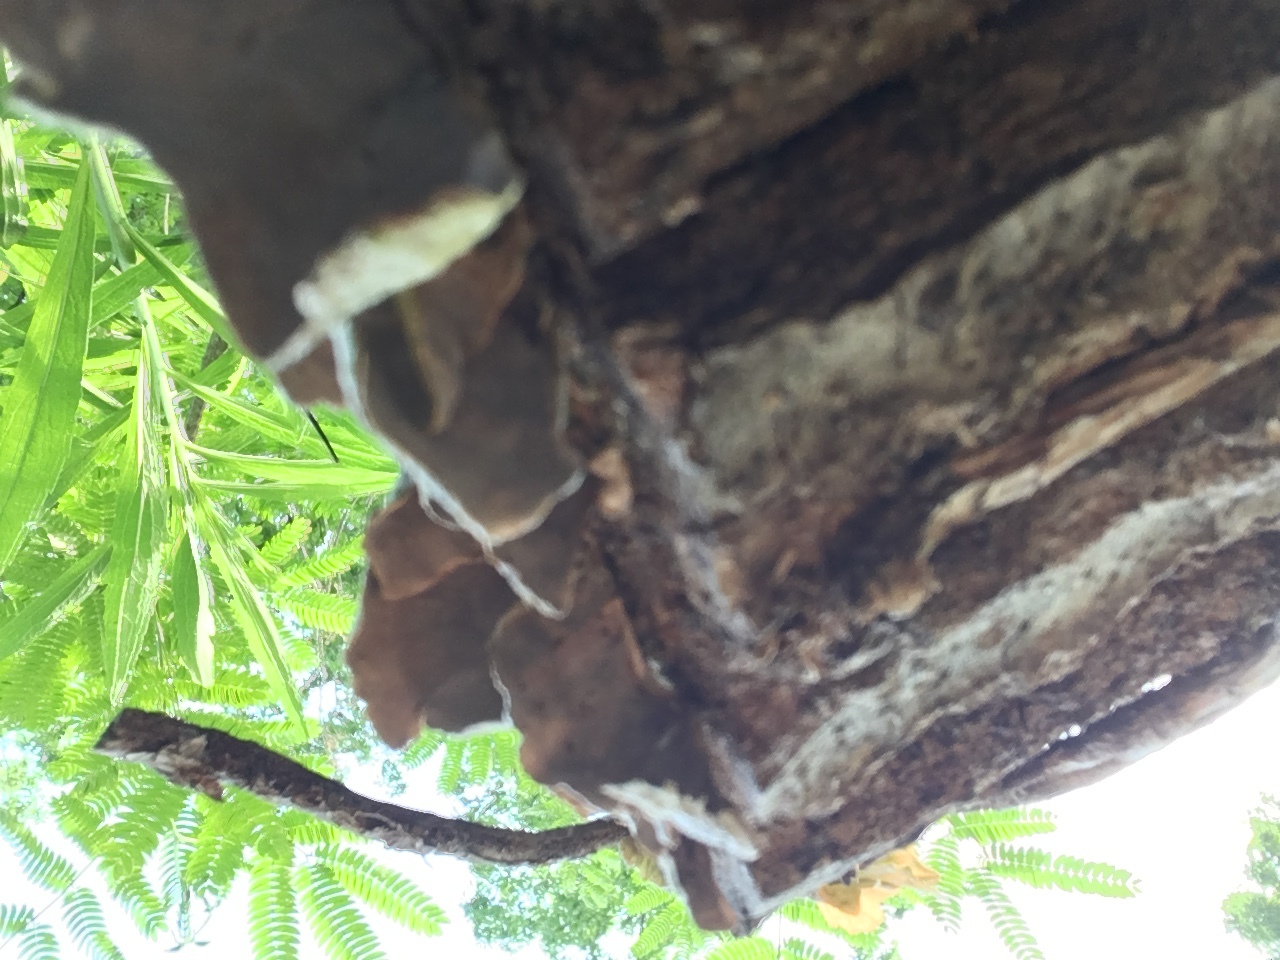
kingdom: Fungi
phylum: Basidiomycota
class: Agaricomycetes
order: Polyporales
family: Polyporaceae
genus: Trametes
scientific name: Trametes versicolor
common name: Turkeytail
